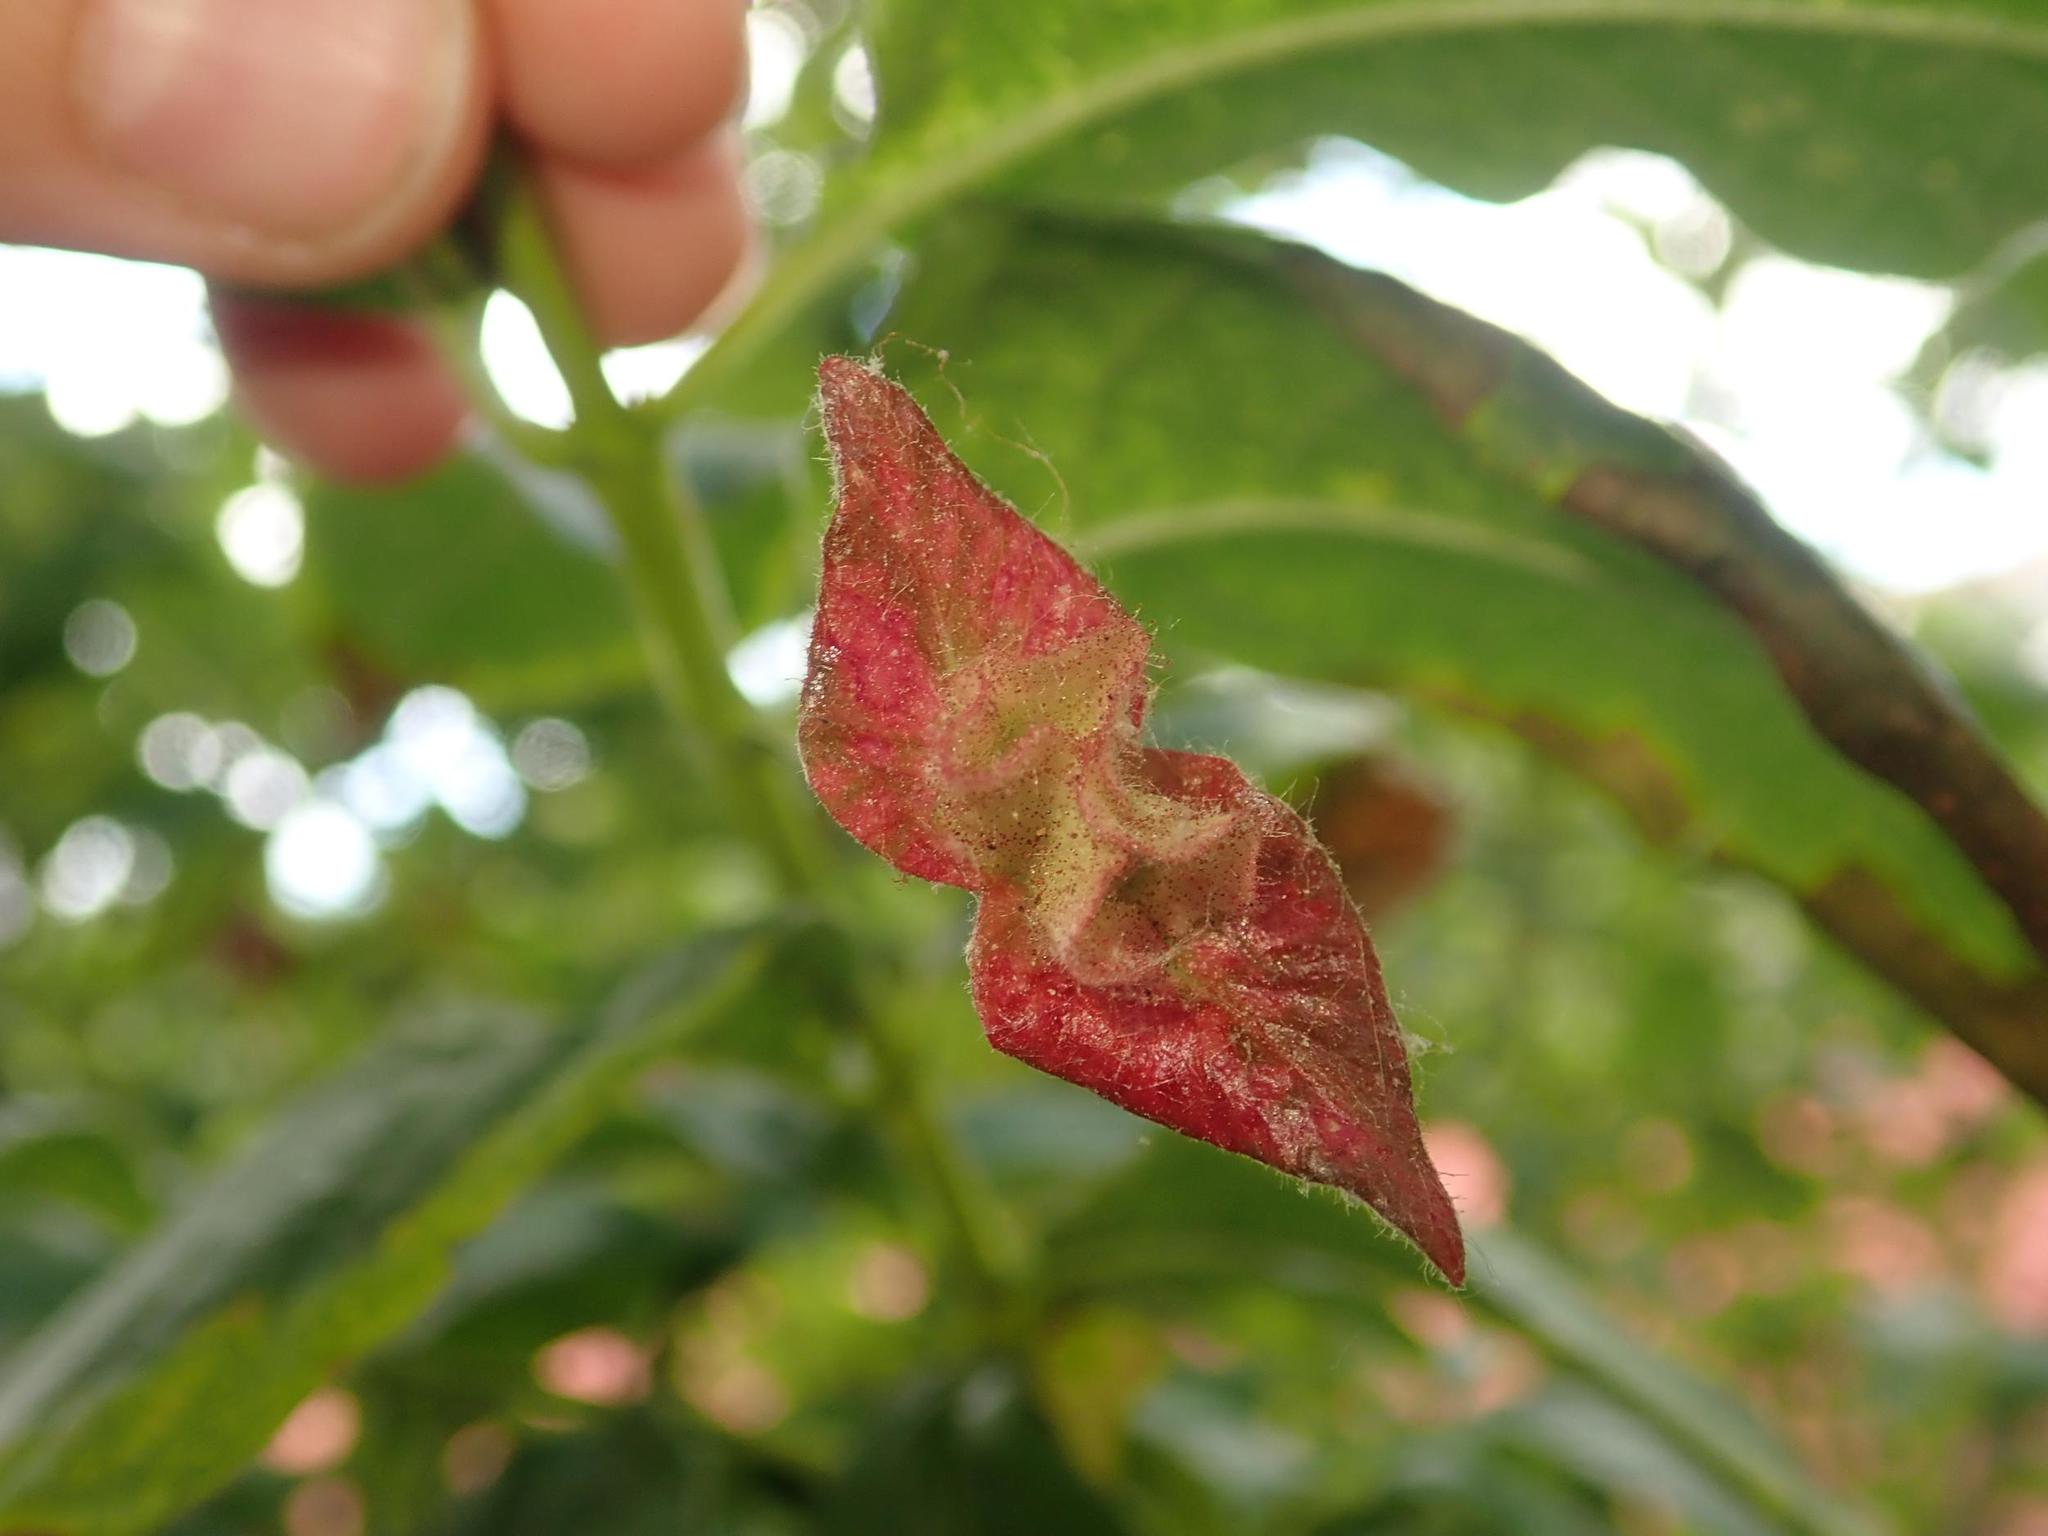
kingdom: Plantae
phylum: Tracheophyta
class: Magnoliopsida
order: Dipsacales
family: Caprifoliaceae
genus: Lonicera
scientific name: Lonicera involucrata
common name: Californian honeysuckle
